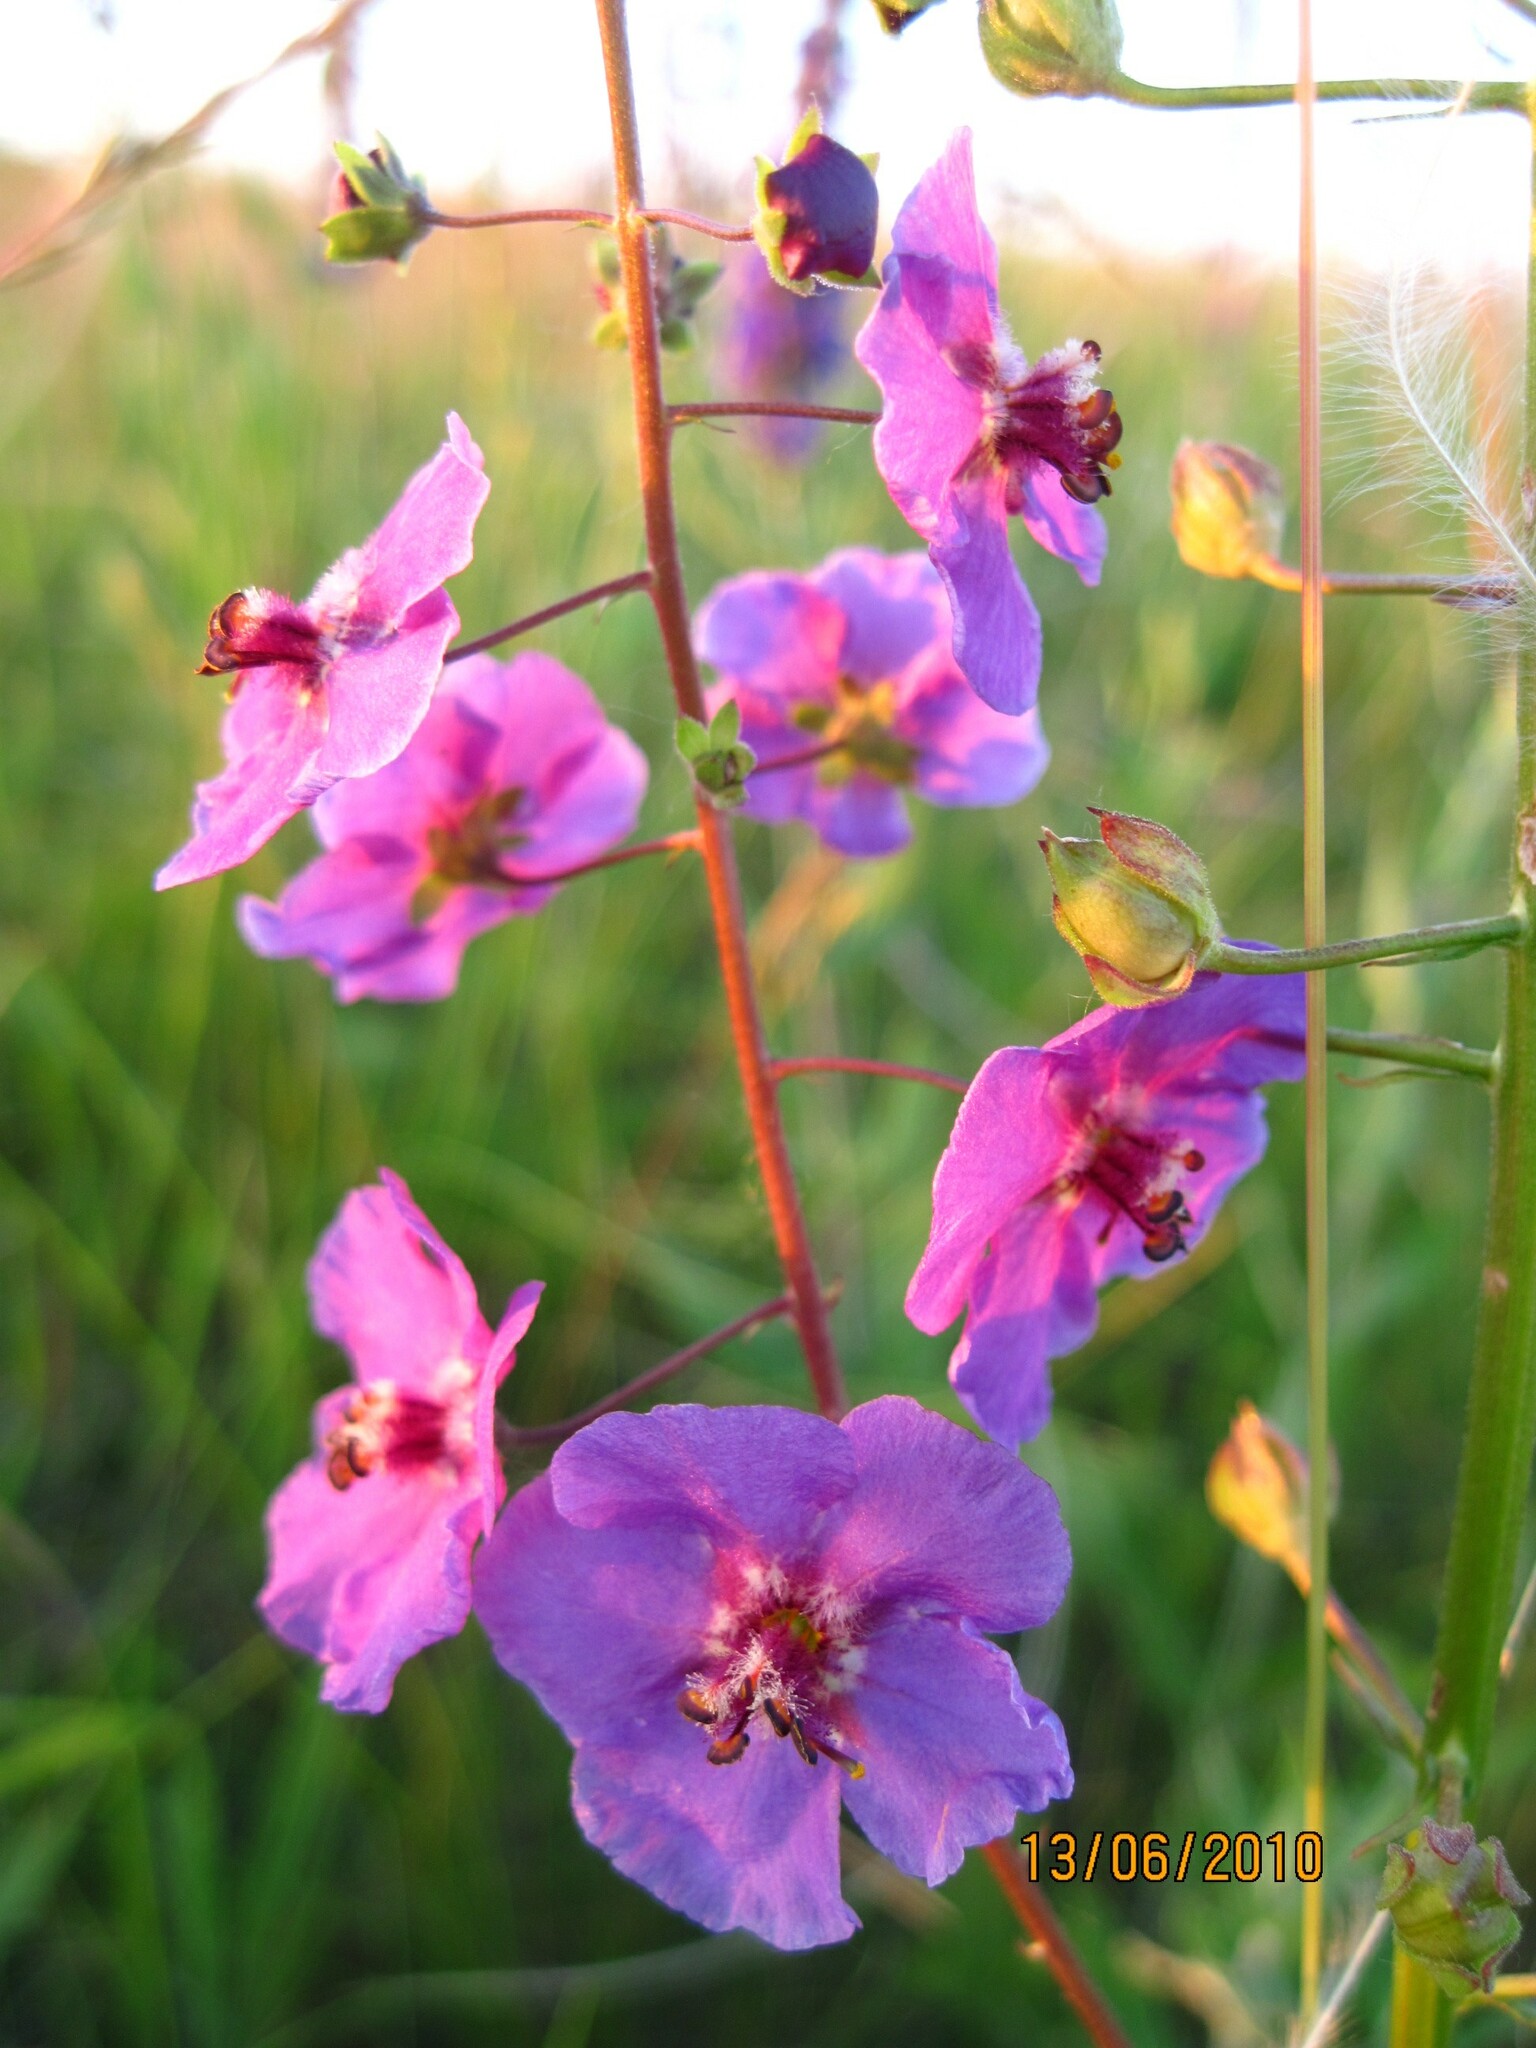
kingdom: Plantae
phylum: Tracheophyta
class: Magnoliopsida
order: Lamiales
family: Scrophulariaceae
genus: Verbascum
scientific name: Verbascum phoeniceum
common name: Purple mullein
